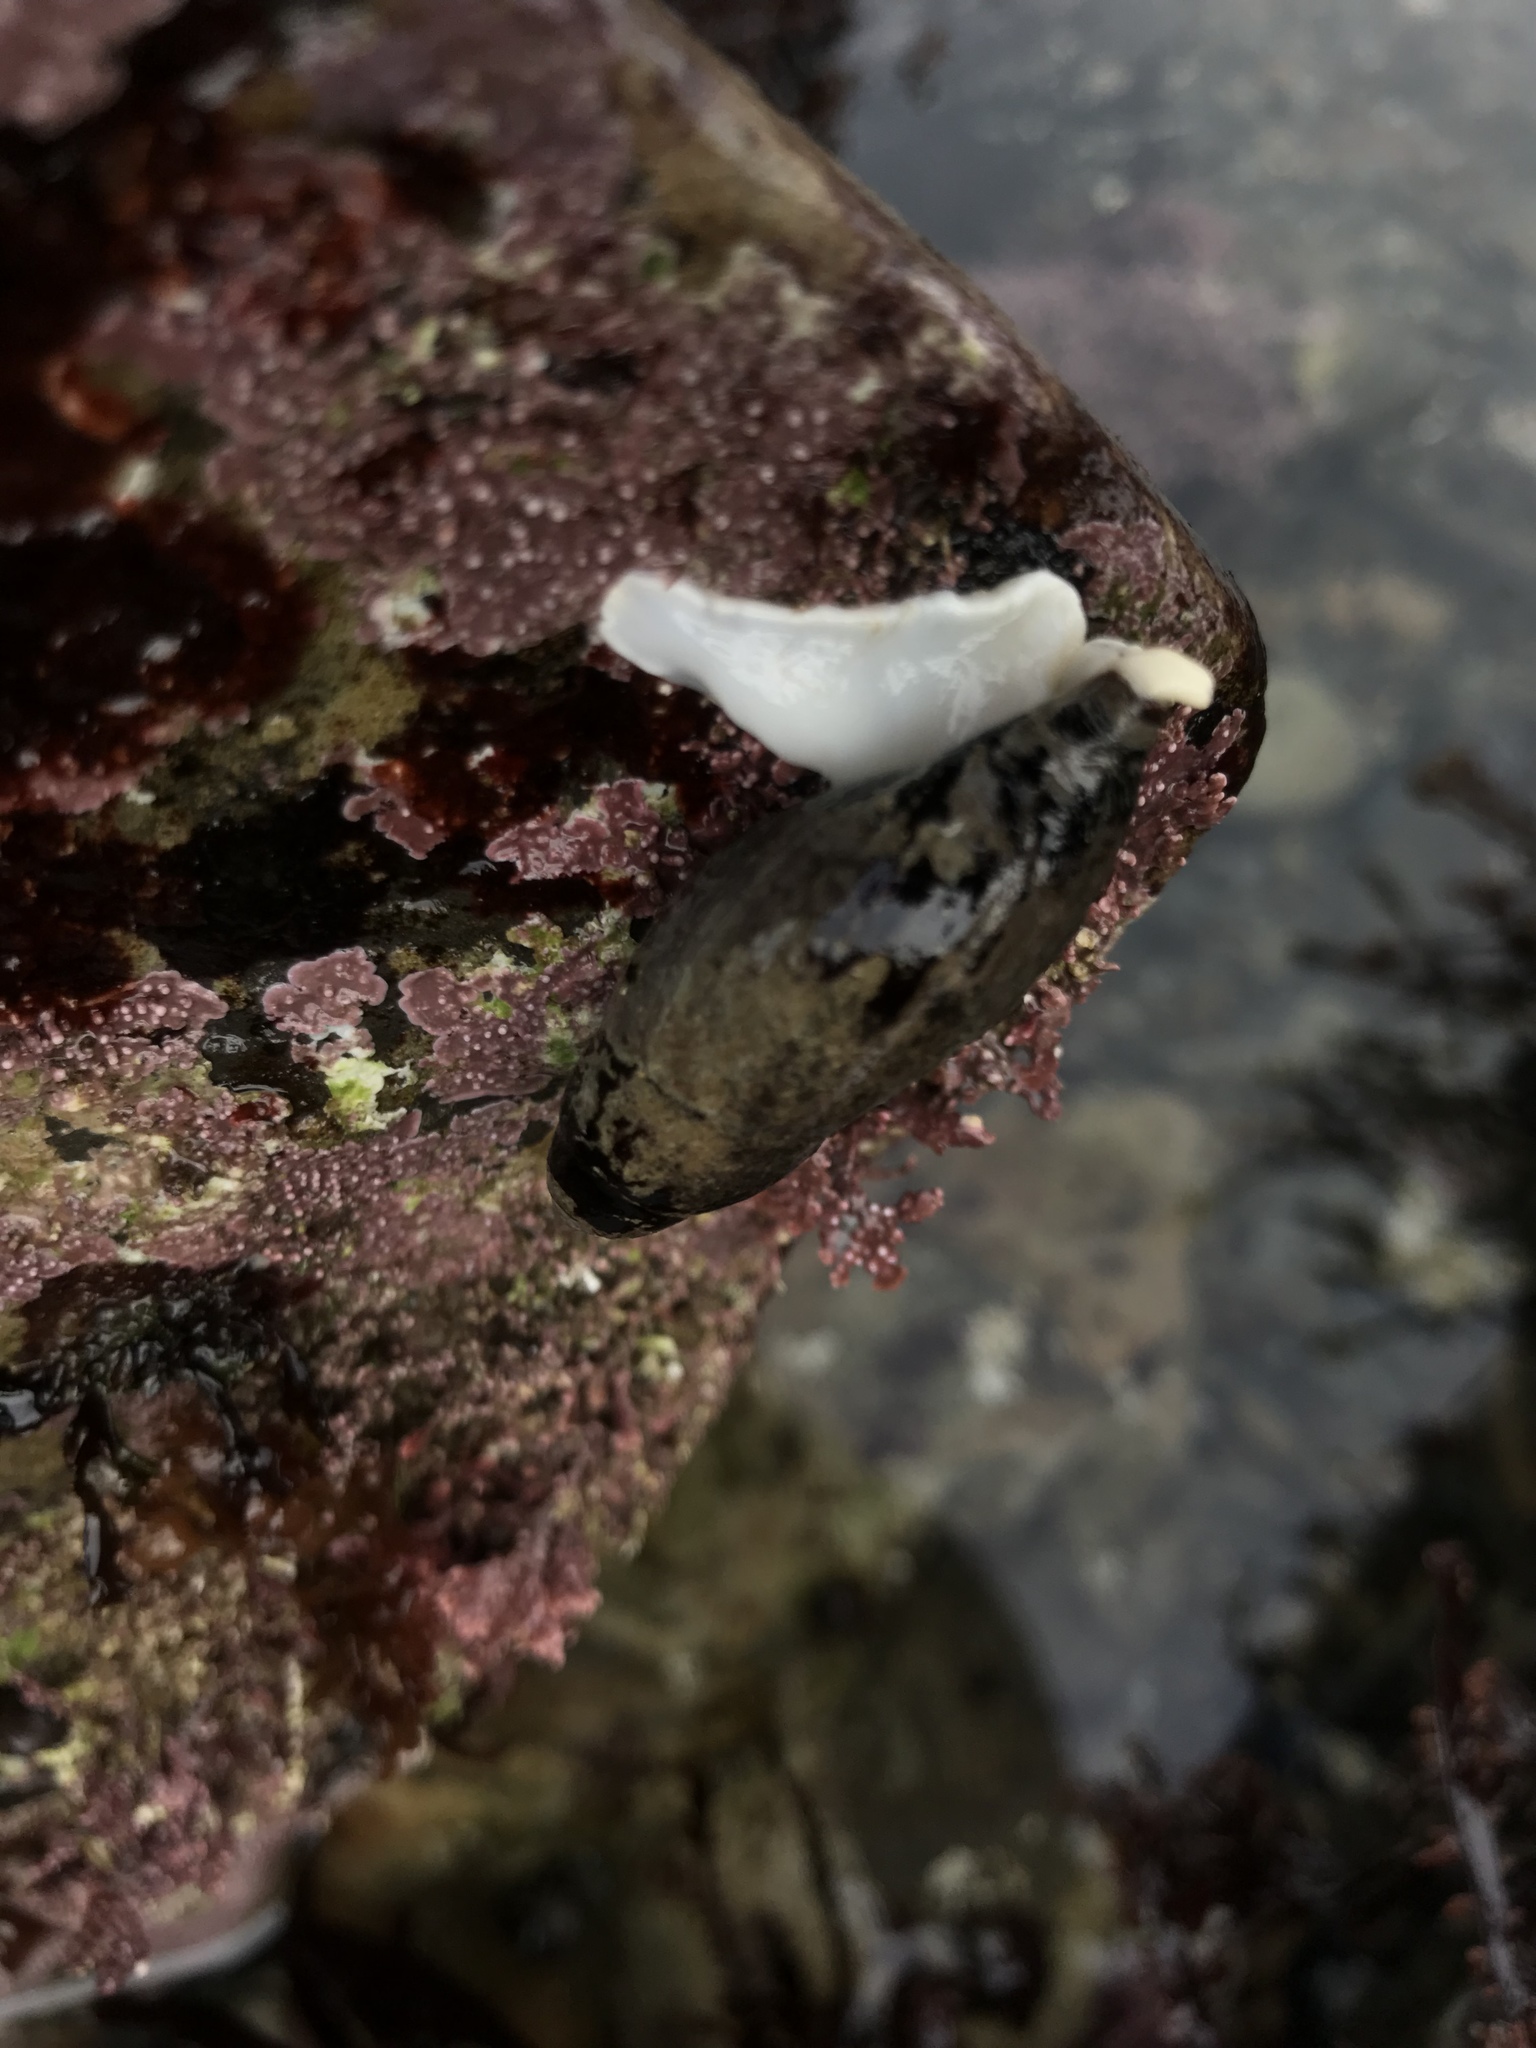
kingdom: Animalia
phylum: Mollusca
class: Gastropoda
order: Neogastropoda
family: Mitridae
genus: Atrimitra
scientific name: Atrimitra idae
